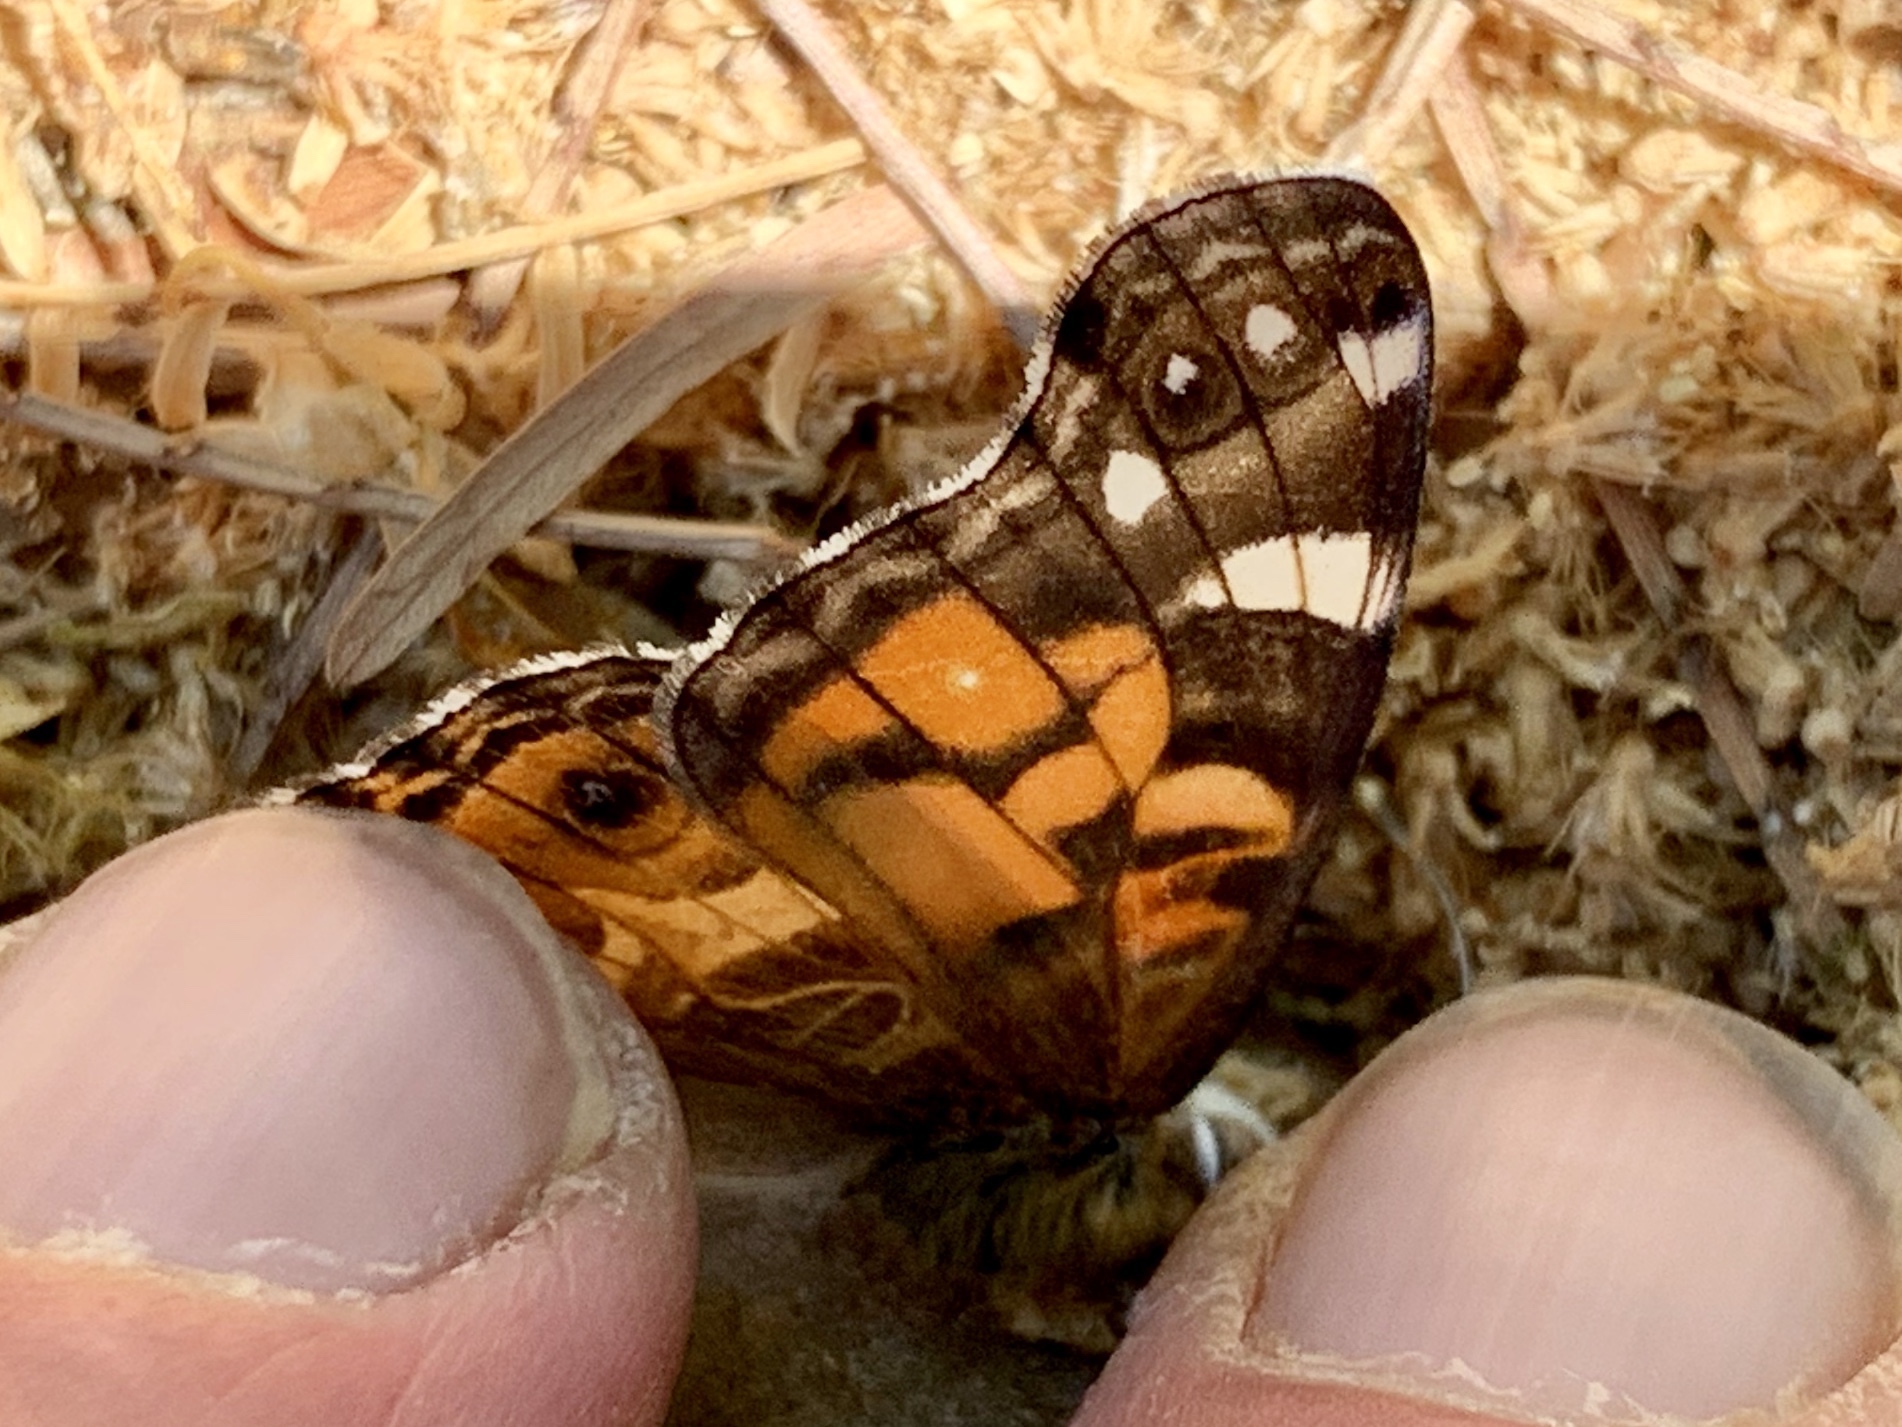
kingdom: Animalia
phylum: Arthropoda
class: Insecta
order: Lepidoptera
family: Nymphalidae
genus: Vanessa
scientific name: Vanessa virginiensis
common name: American lady
